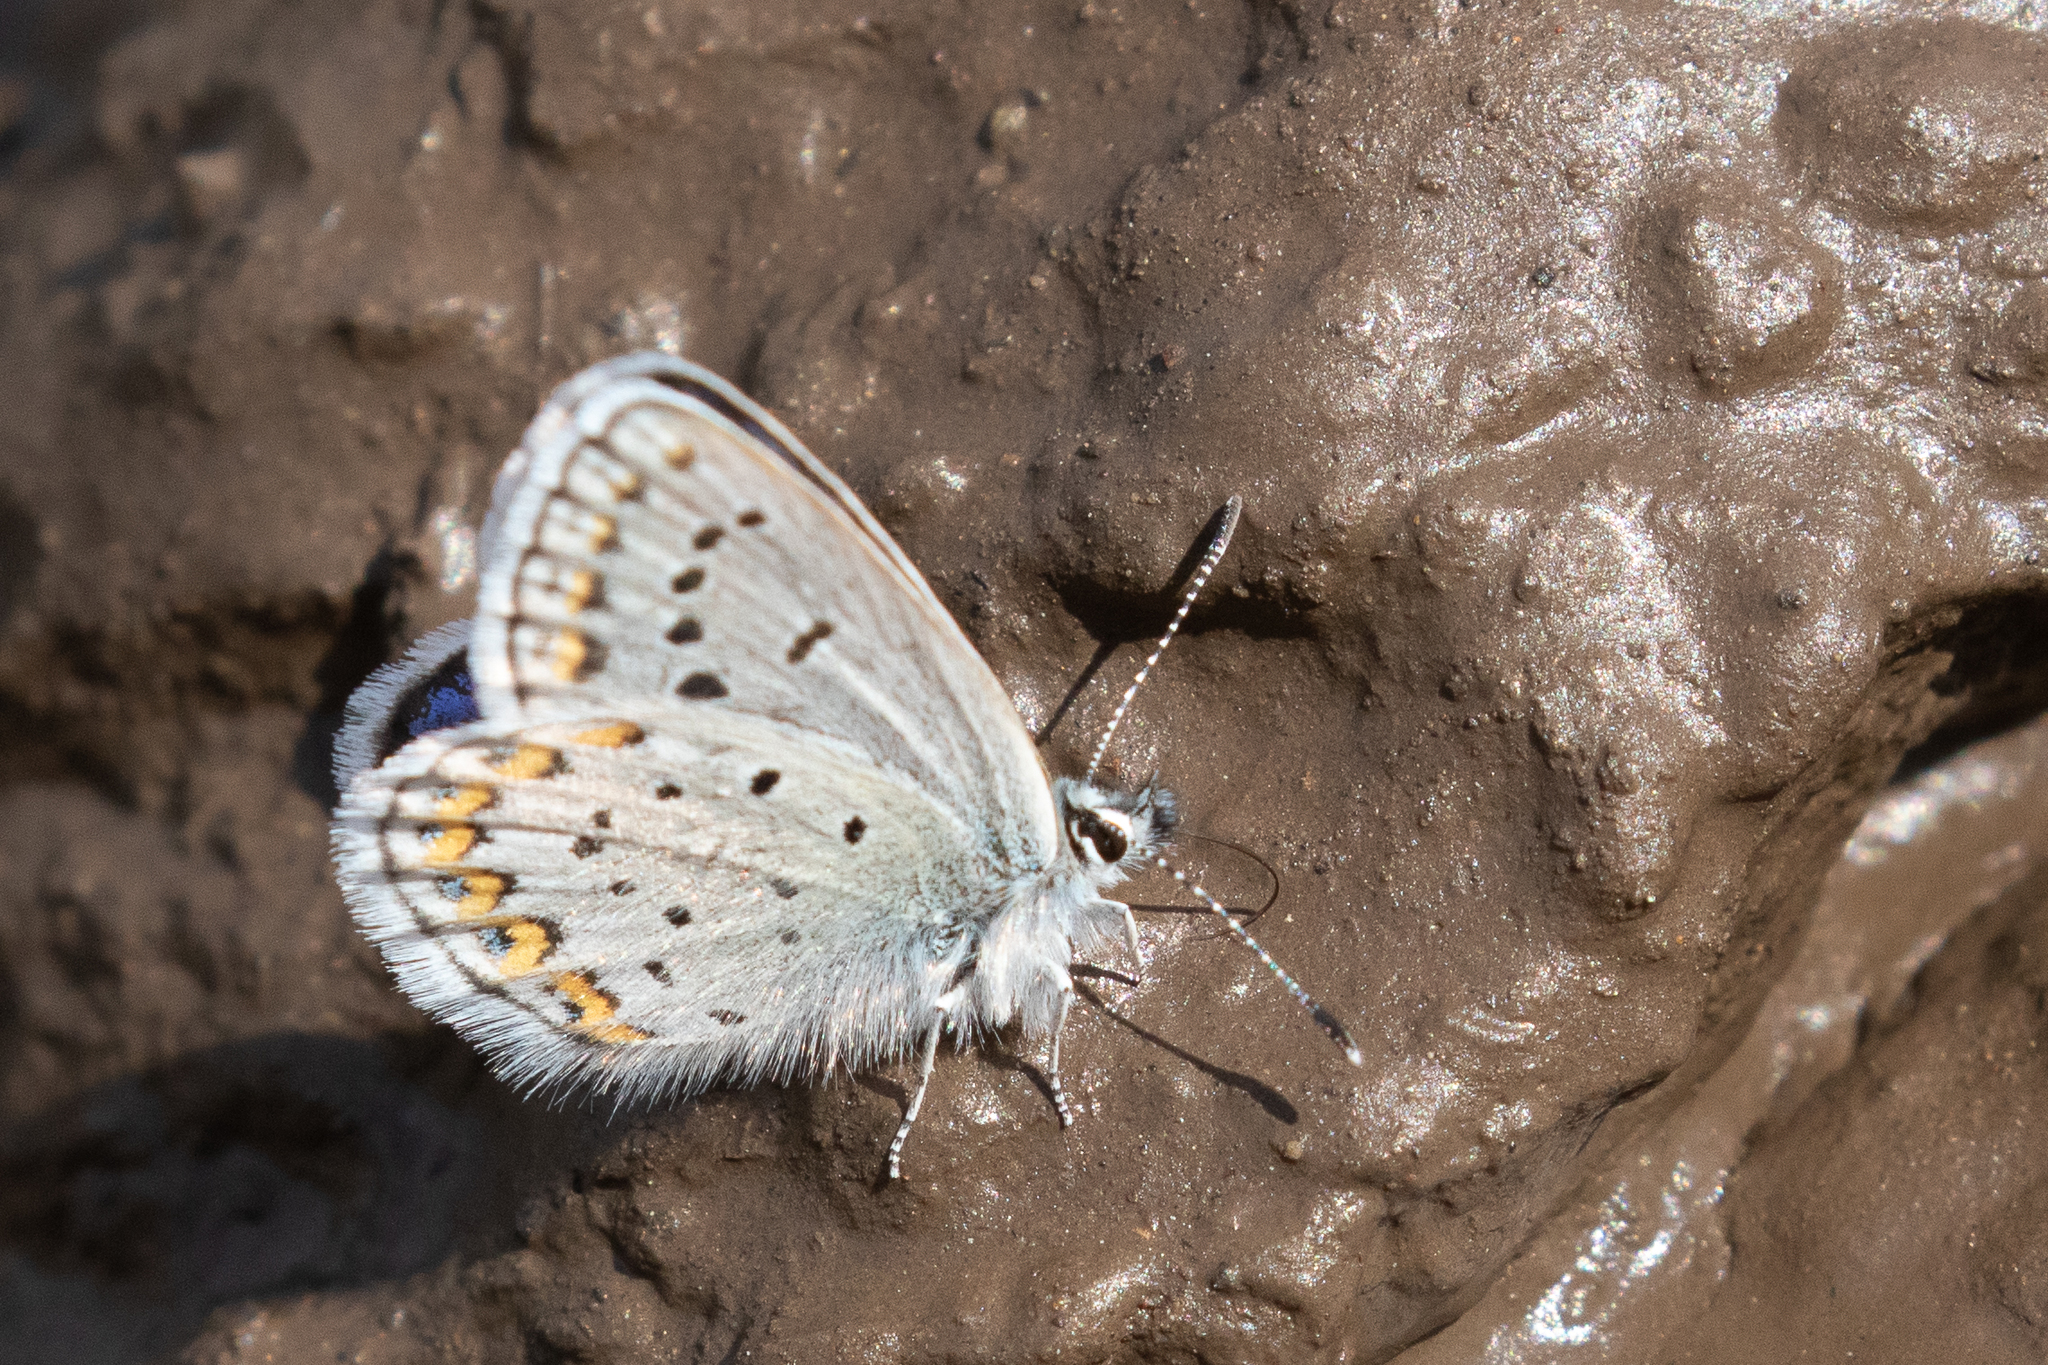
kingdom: Animalia
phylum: Arthropoda
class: Insecta
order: Lepidoptera
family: Lycaenidae
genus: Lycaeides
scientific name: Lycaeides idas
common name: Northern blue
